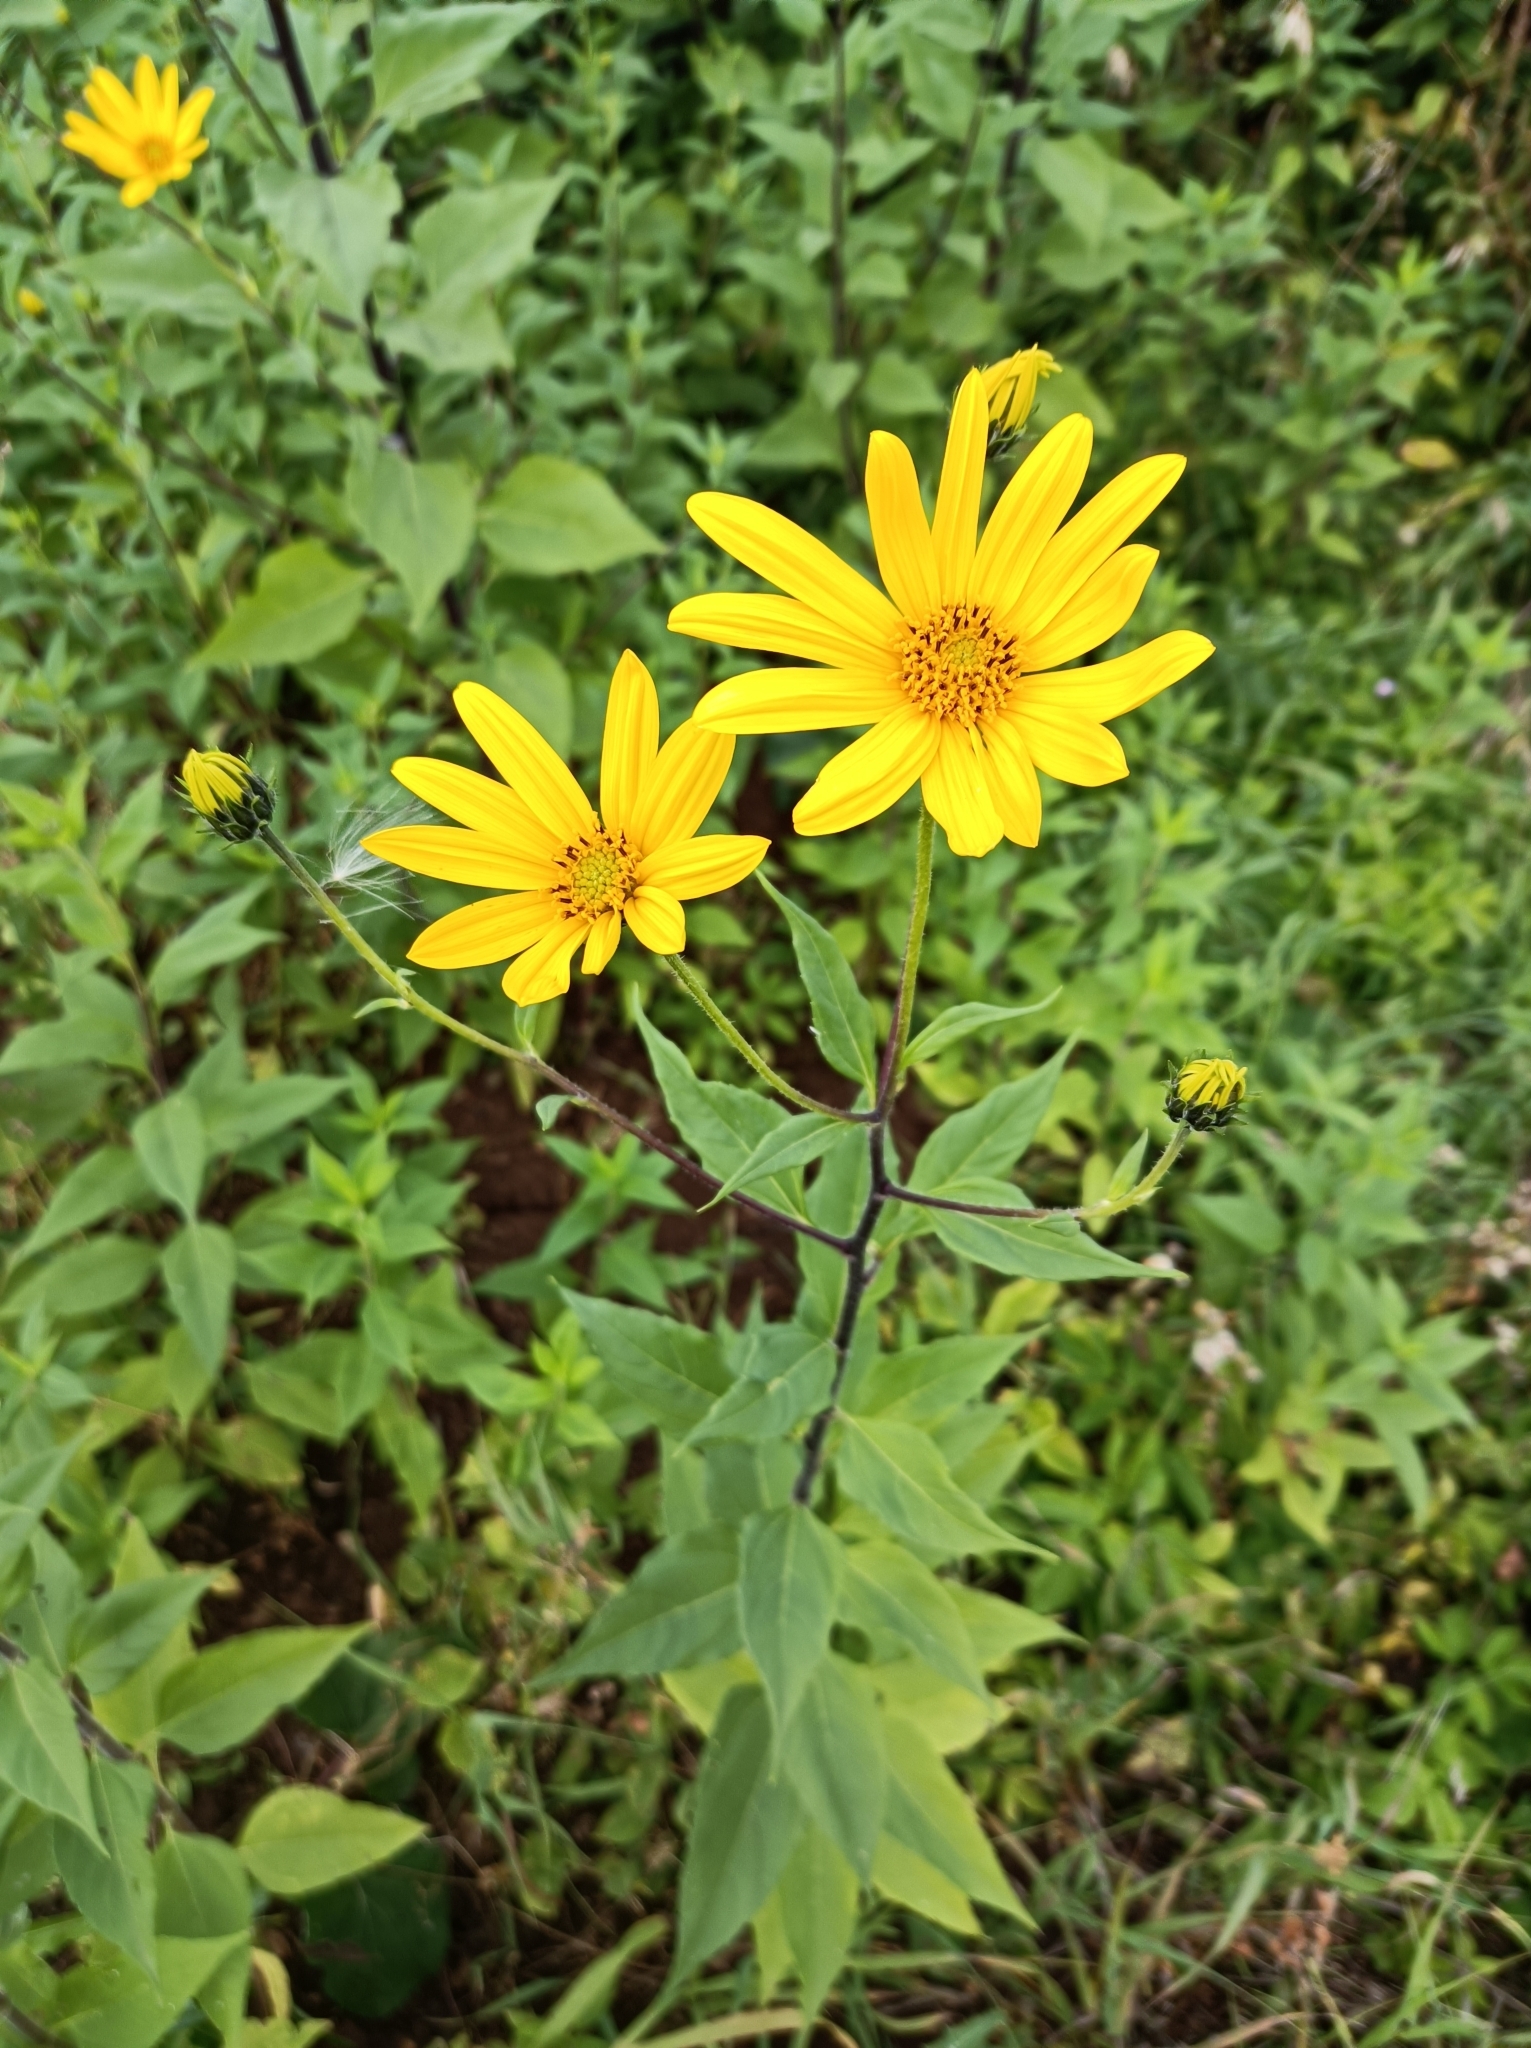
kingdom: Plantae
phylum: Tracheophyta
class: Magnoliopsida
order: Asterales
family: Asteraceae
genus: Helianthus
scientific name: Helianthus tuberosus
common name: Jerusalem artichoke
